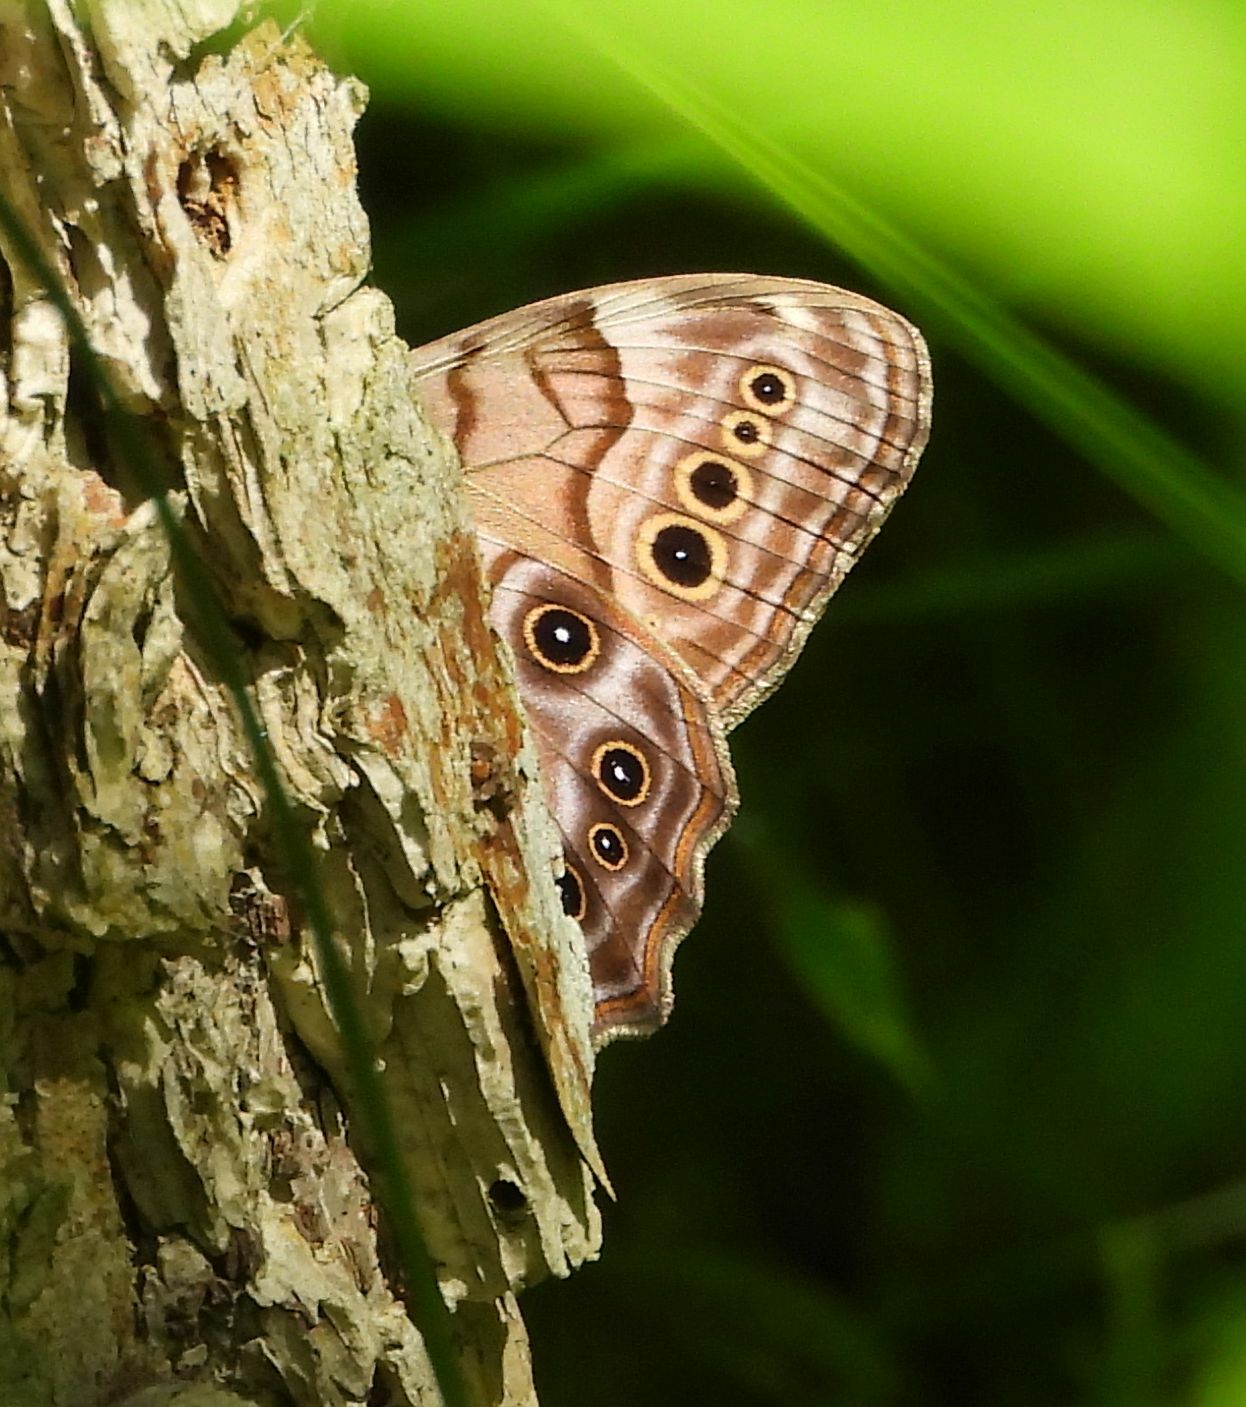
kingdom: Animalia
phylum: Arthropoda
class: Insecta
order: Lepidoptera
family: Nymphalidae
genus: Lethe
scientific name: Lethe anthedon
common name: Northern pearly-eye
